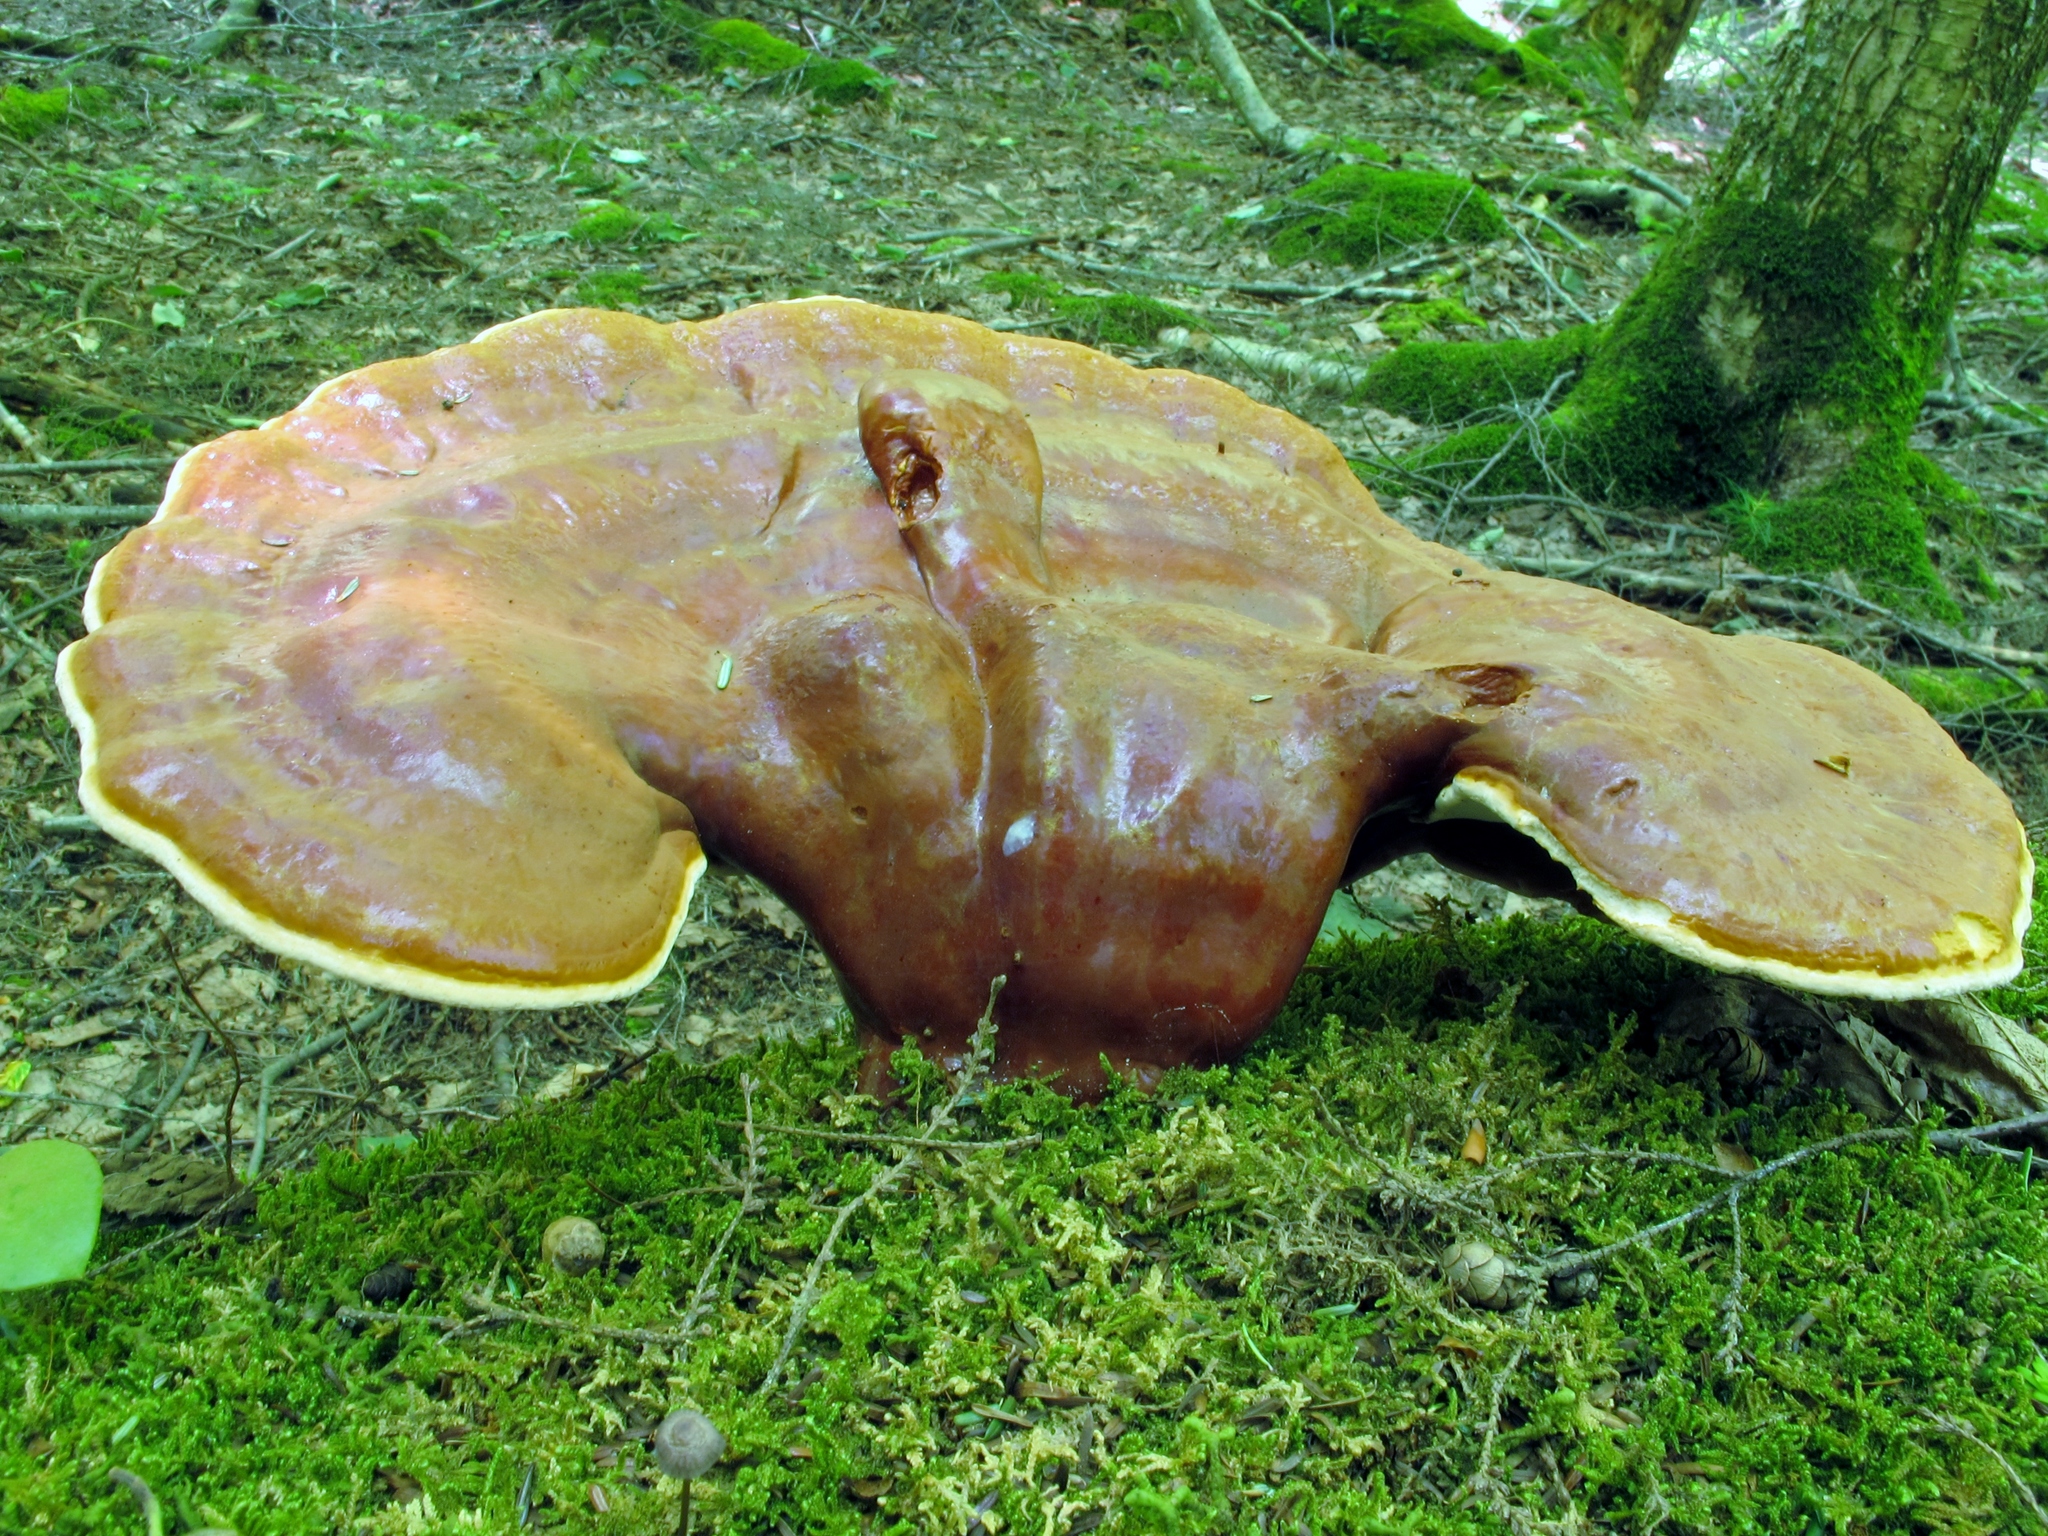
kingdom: Fungi
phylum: Basidiomycota
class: Agaricomycetes
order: Polyporales
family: Polyporaceae
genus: Ganoderma
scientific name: Ganoderma tsugae
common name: Hemlock varnish shelf
